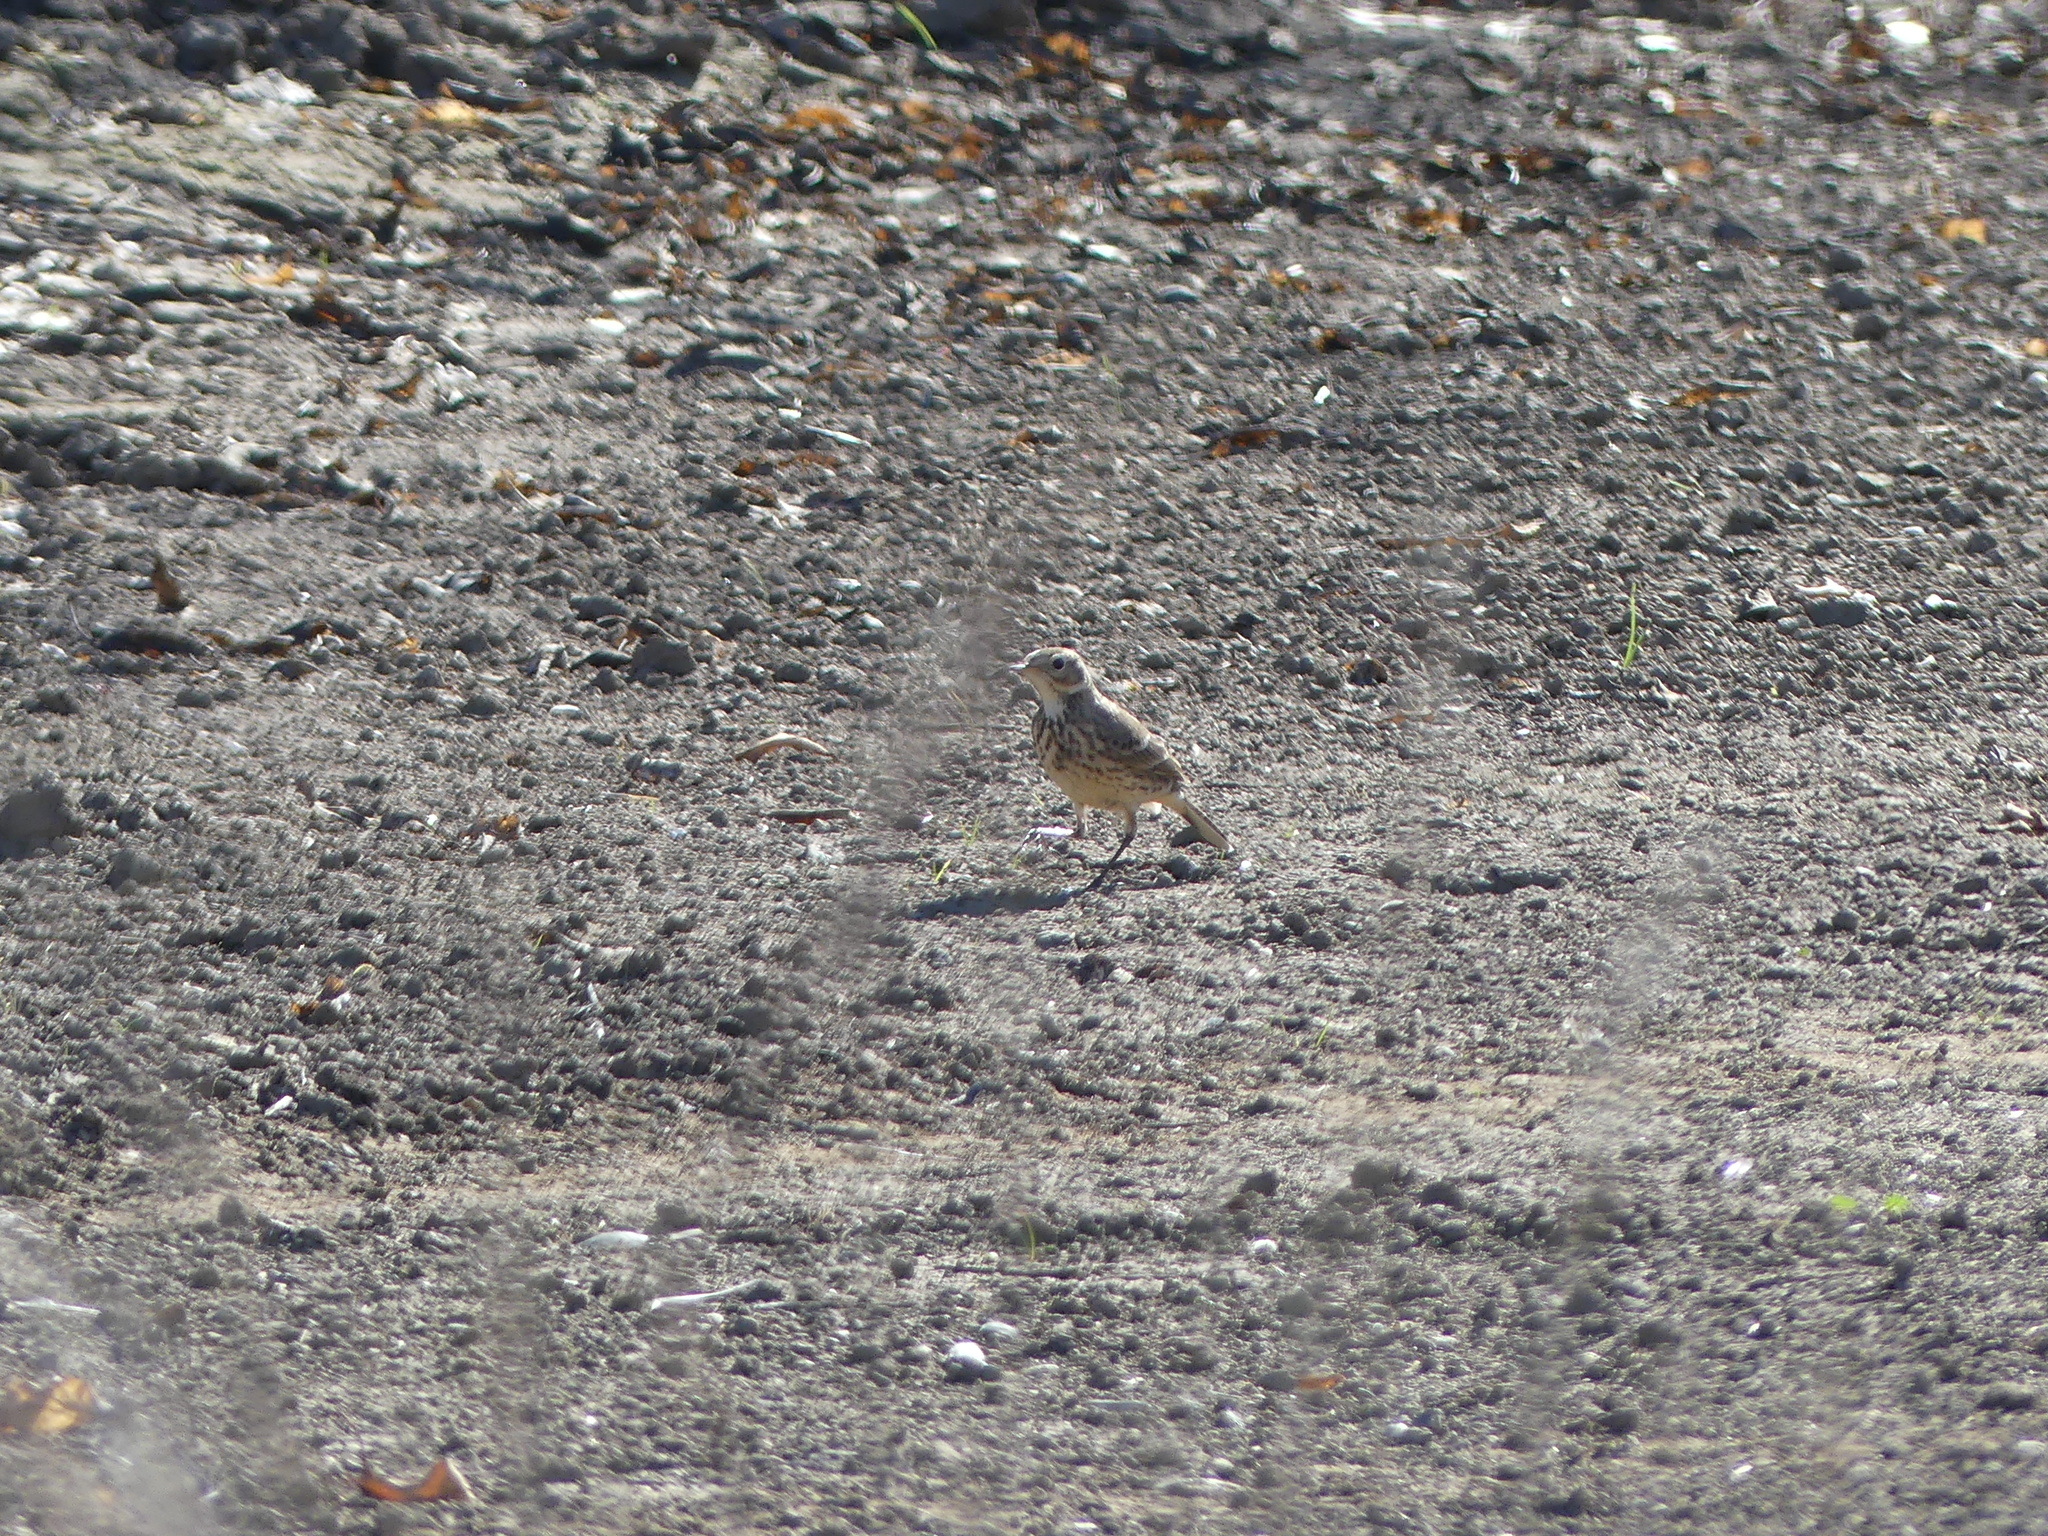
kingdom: Animalia
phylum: Chordata
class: Aves
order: Passeriformes
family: Motacillidae
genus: Anthus
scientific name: Anthus rubescens
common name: Buff-bellied pipit
